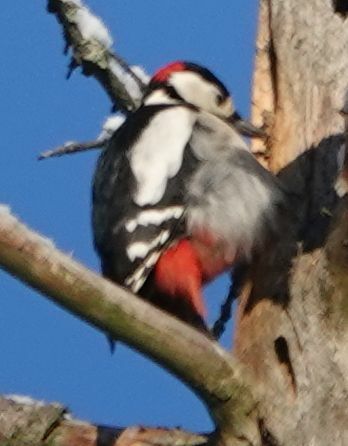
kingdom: Animalia
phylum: Chordata
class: Aves
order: Piciformes
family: Picidae
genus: Dendrocopos
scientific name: Dendrocopos major
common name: Great spotted woodpecker
